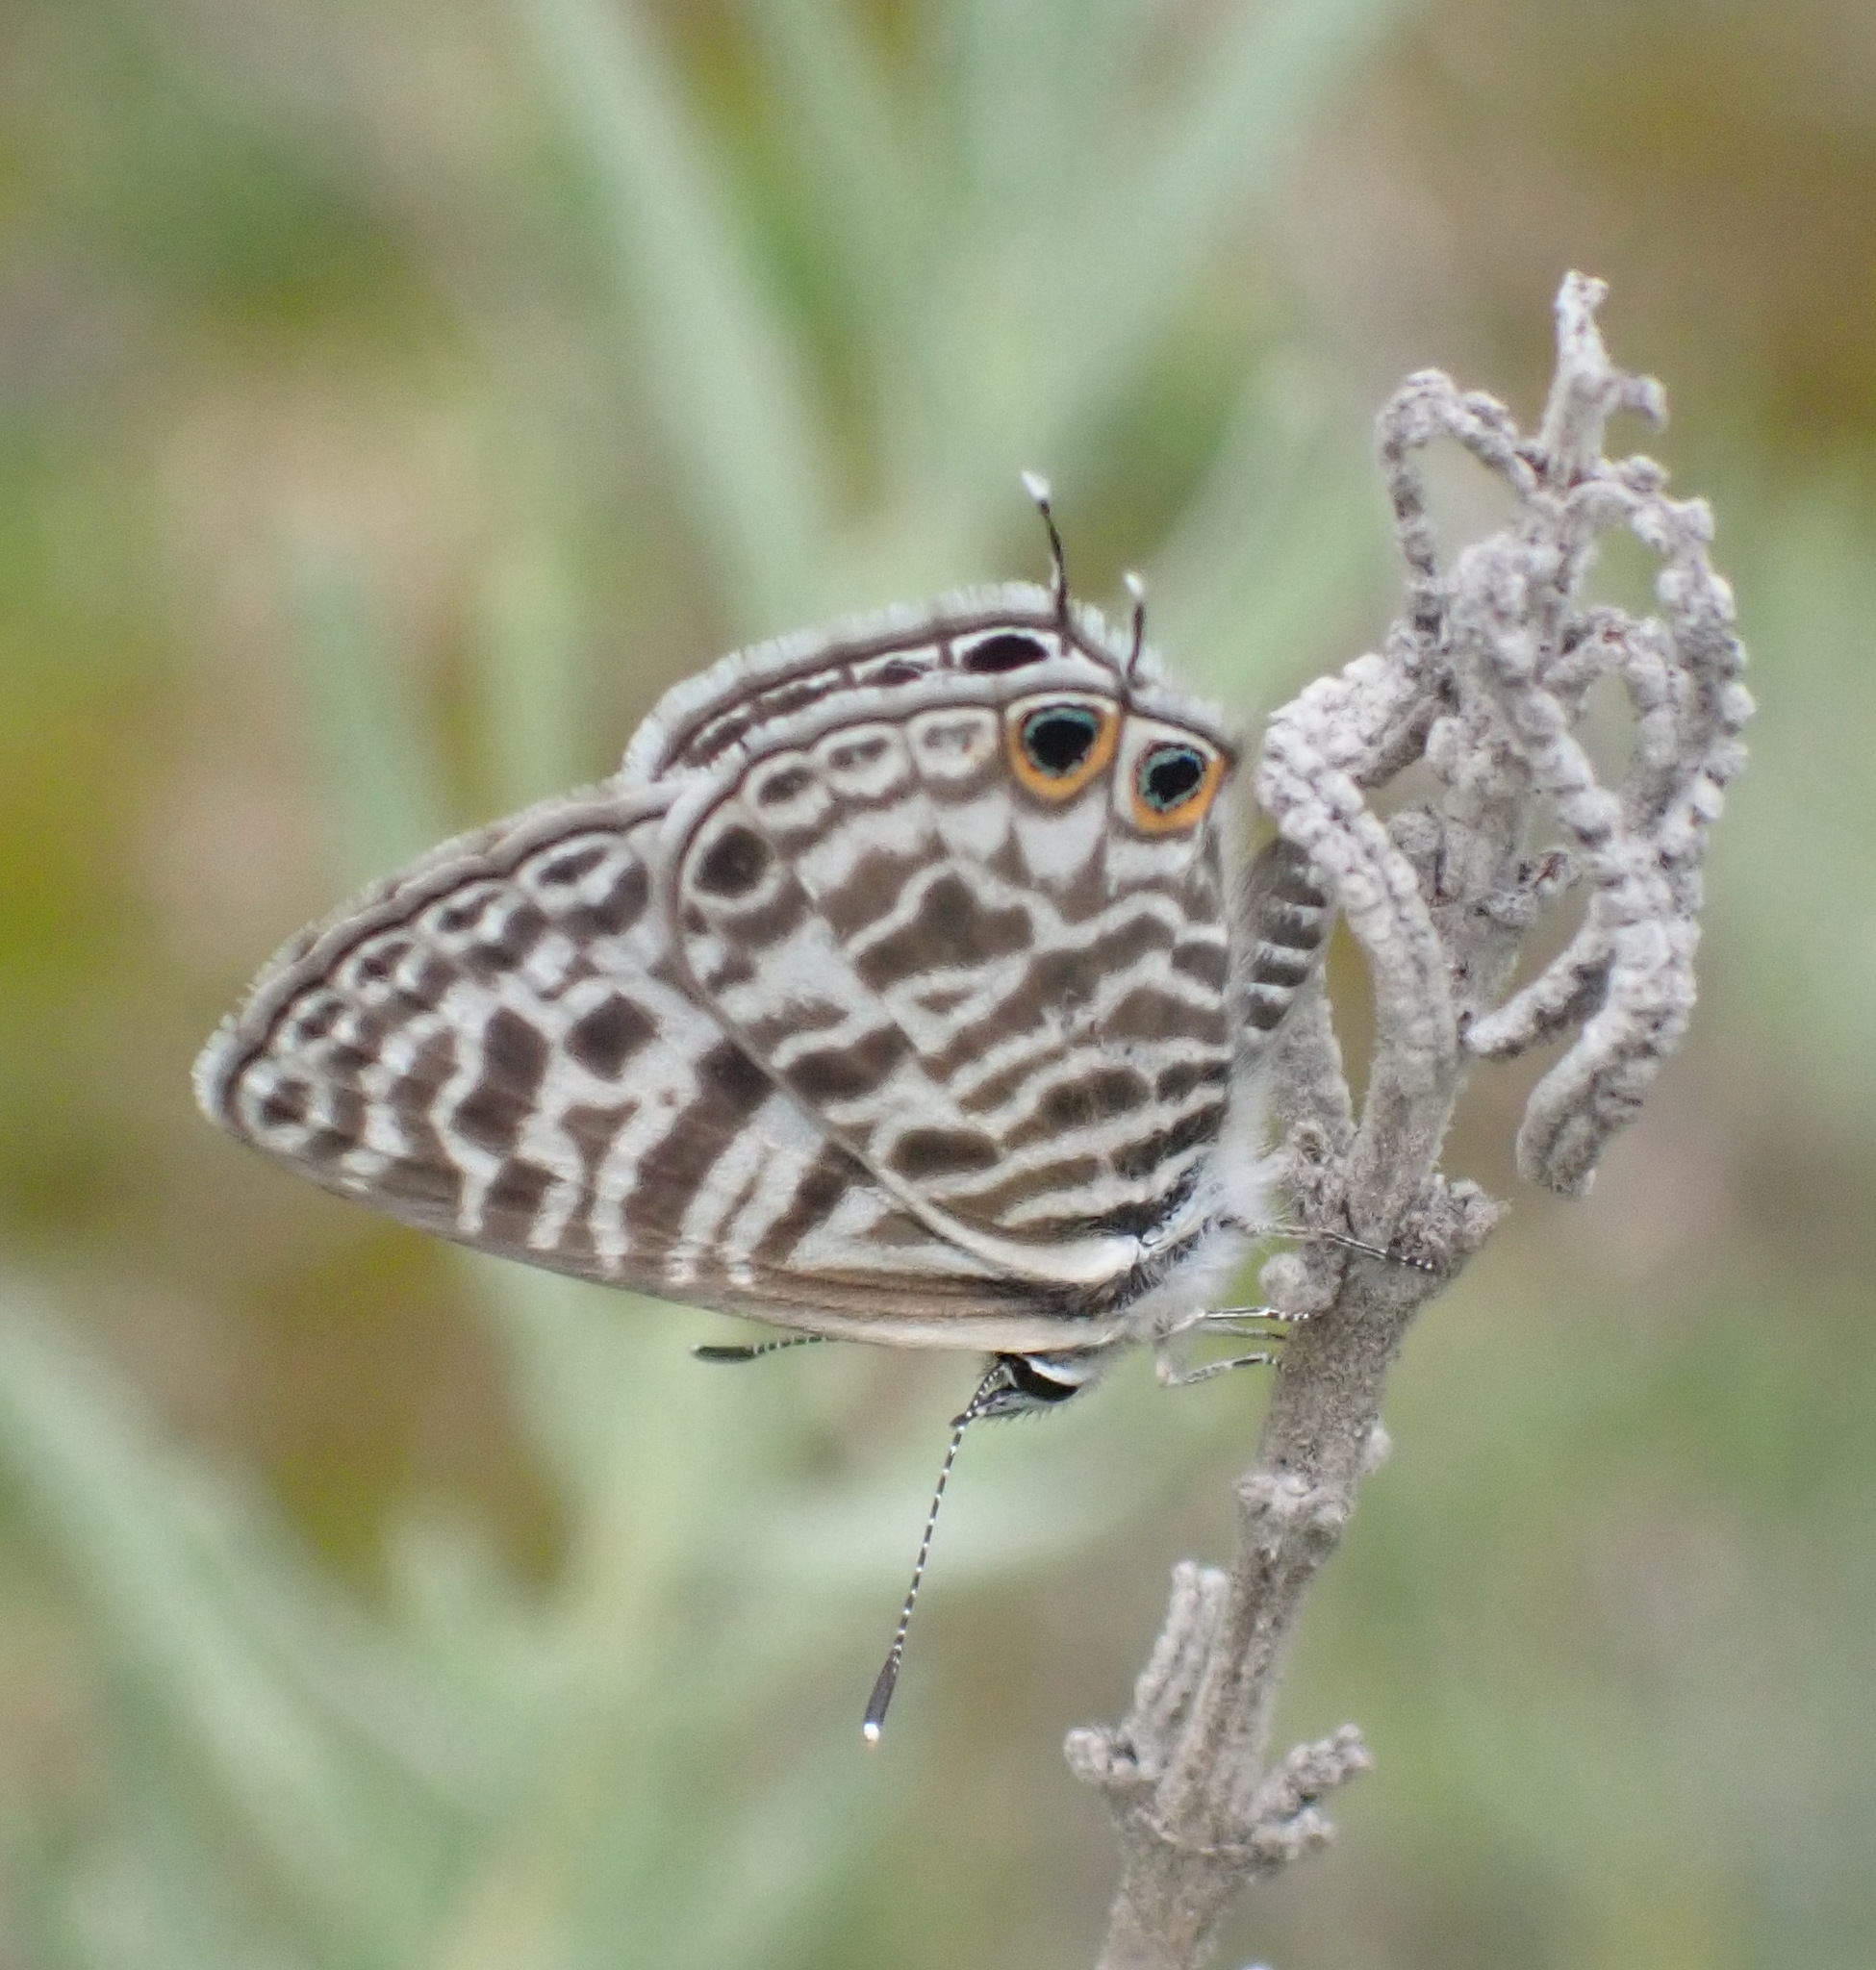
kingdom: Animalia
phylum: Arthropoda
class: Insecta
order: Lepidoptera
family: Lycaenidae
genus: Leptotes
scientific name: Leptotes
